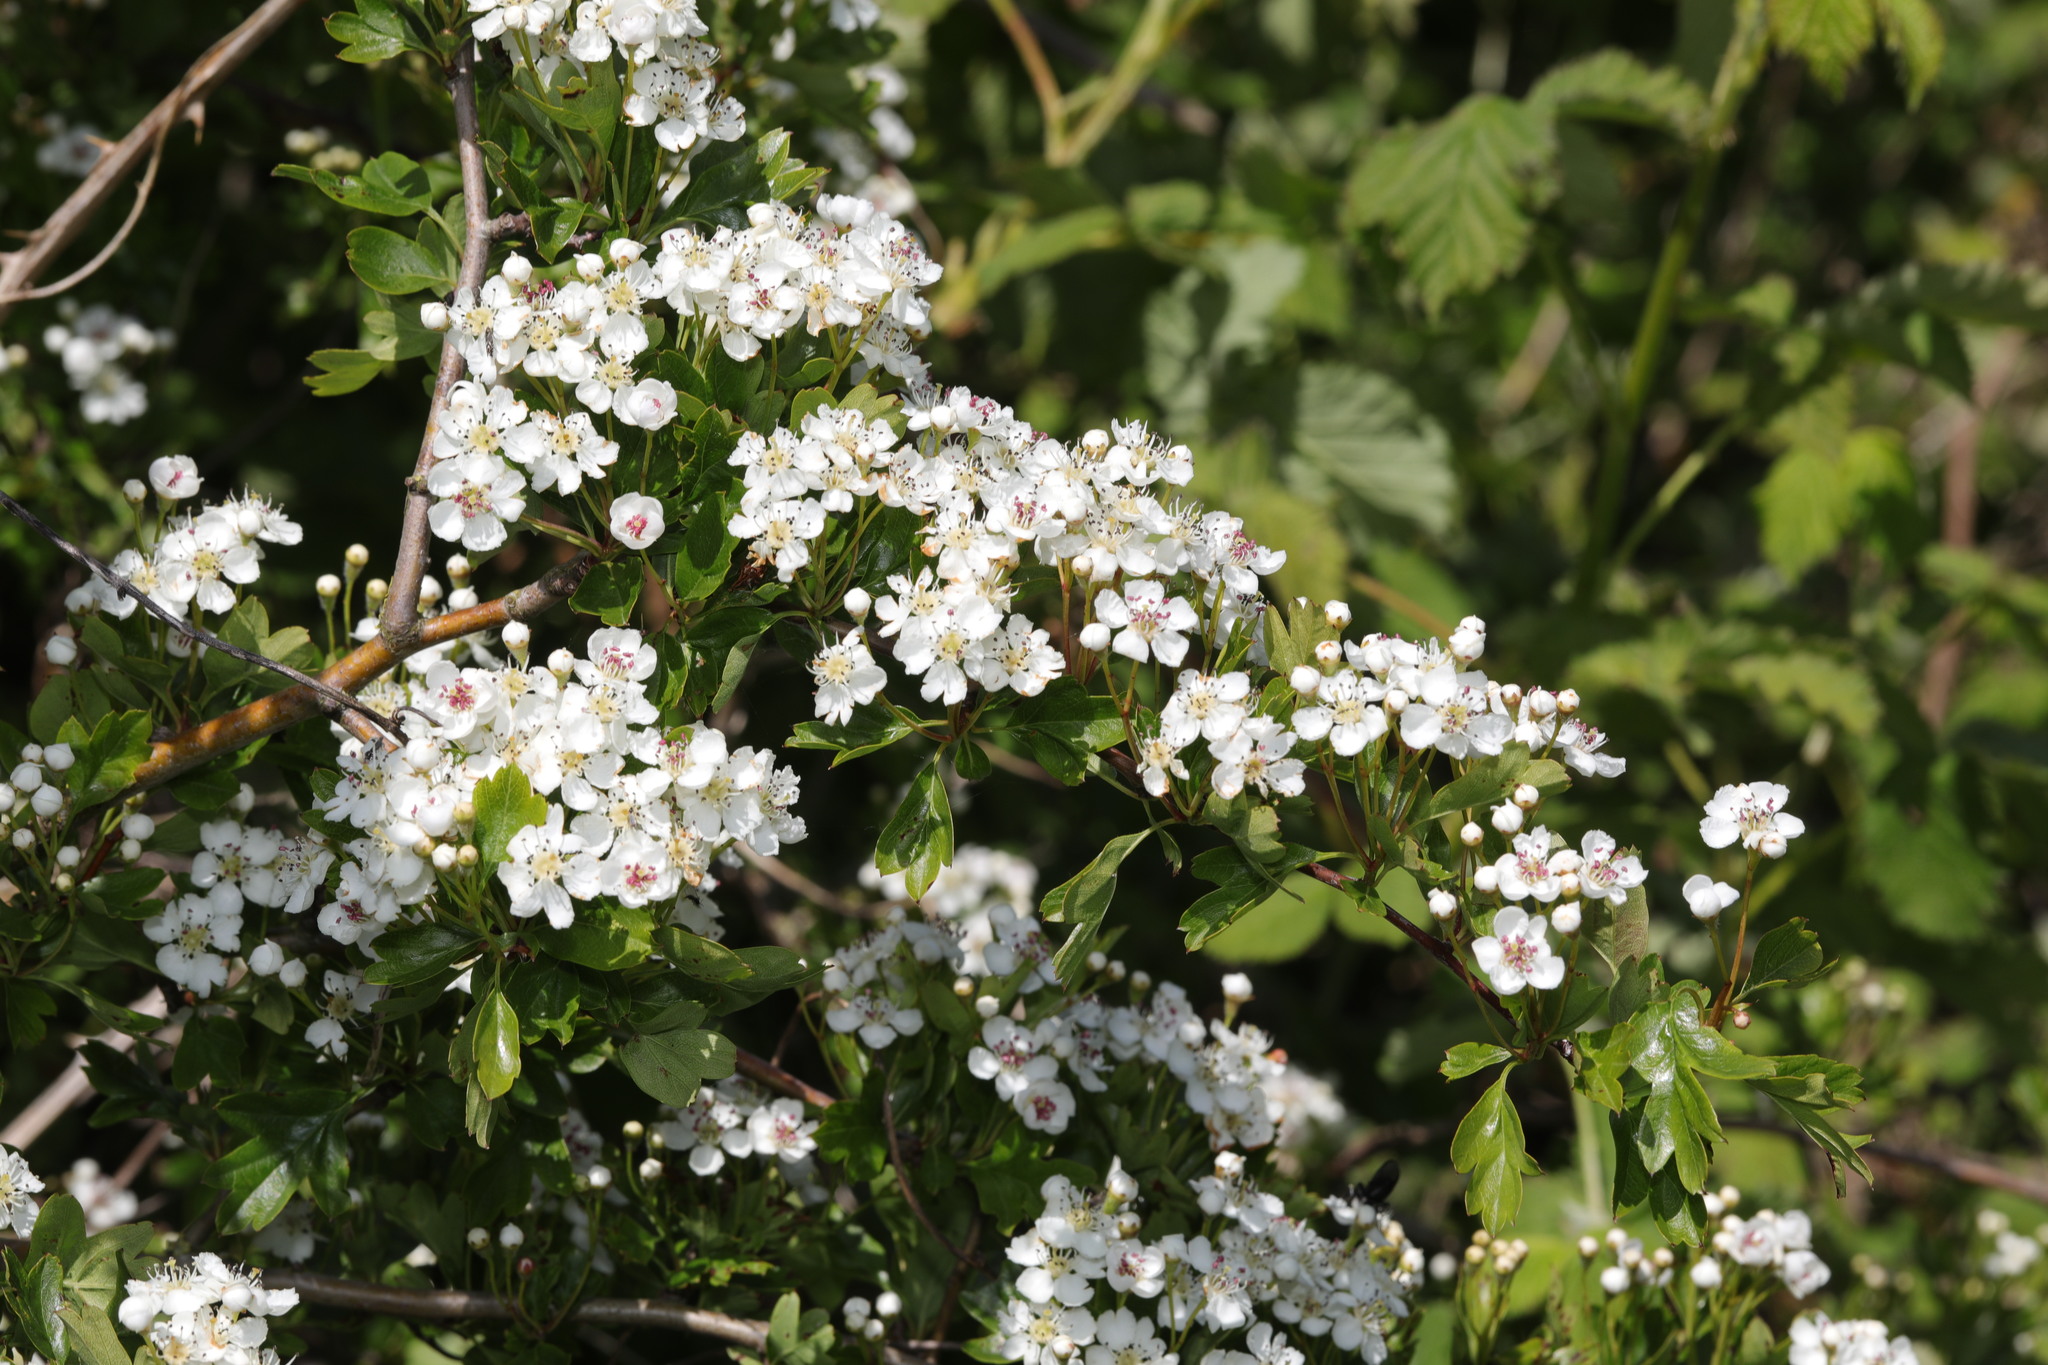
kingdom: Plantae
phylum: Tracheophyta
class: Magnoliopsida
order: Rosales
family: Rosaceae
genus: Crataegus
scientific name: Crataegus monogyna
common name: Hawthorn
